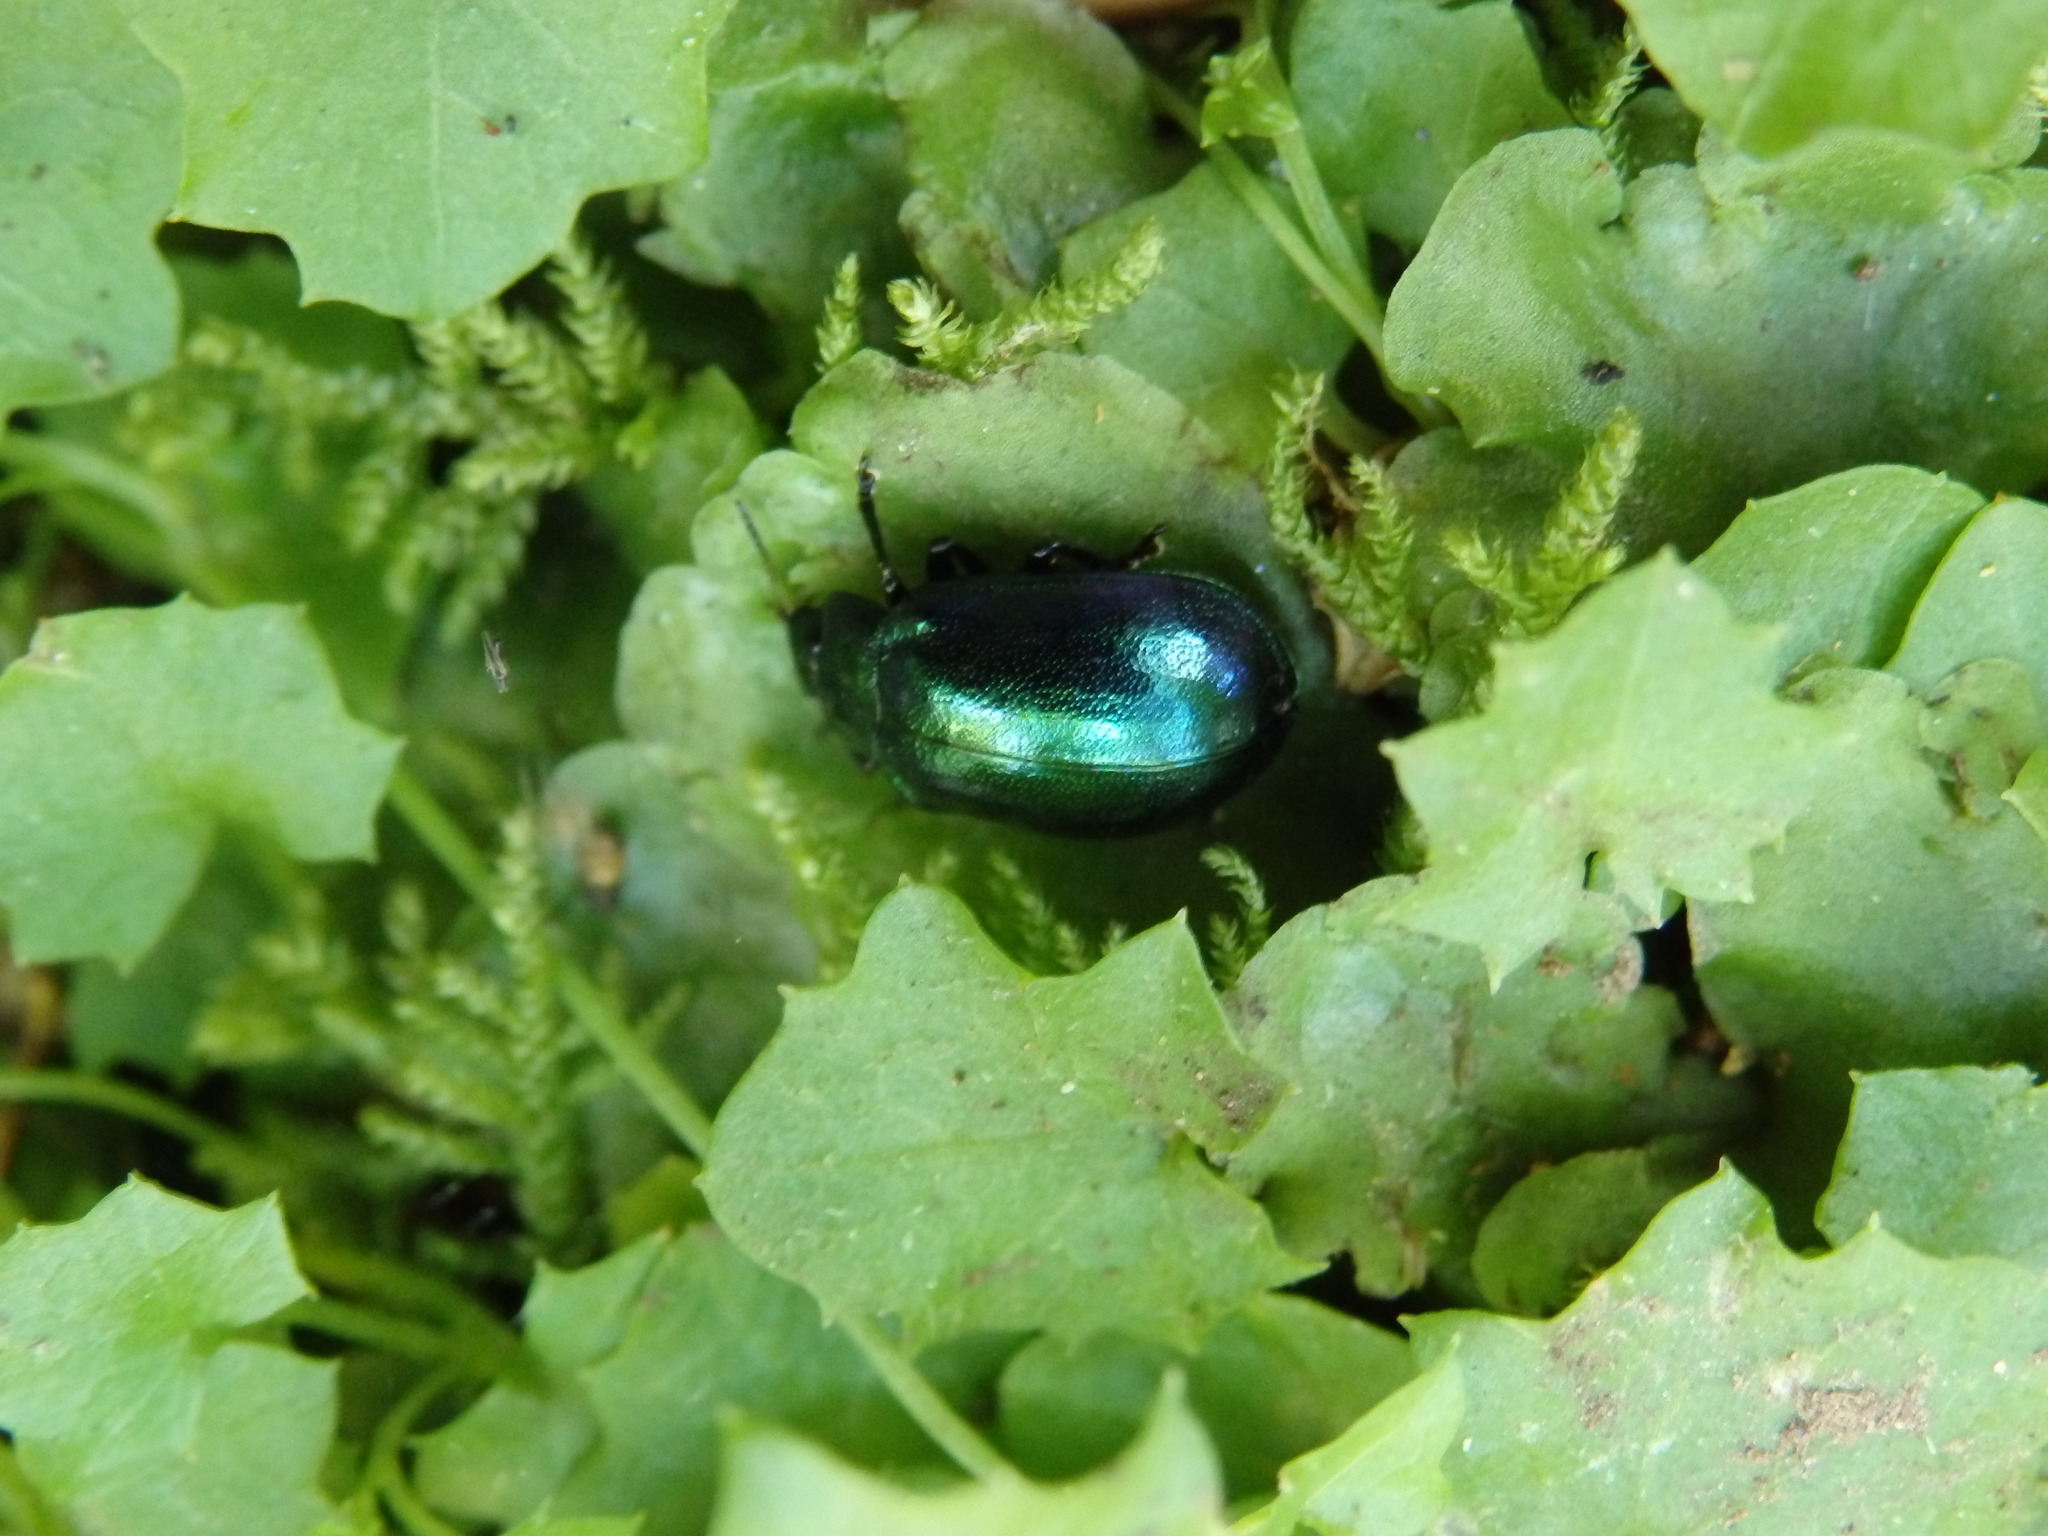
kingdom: Animalia
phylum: Arthropoda
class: Insecta
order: Coleoptera
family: Chrysomelidae
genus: Plagiosterna
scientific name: Plagiosterna aenea
